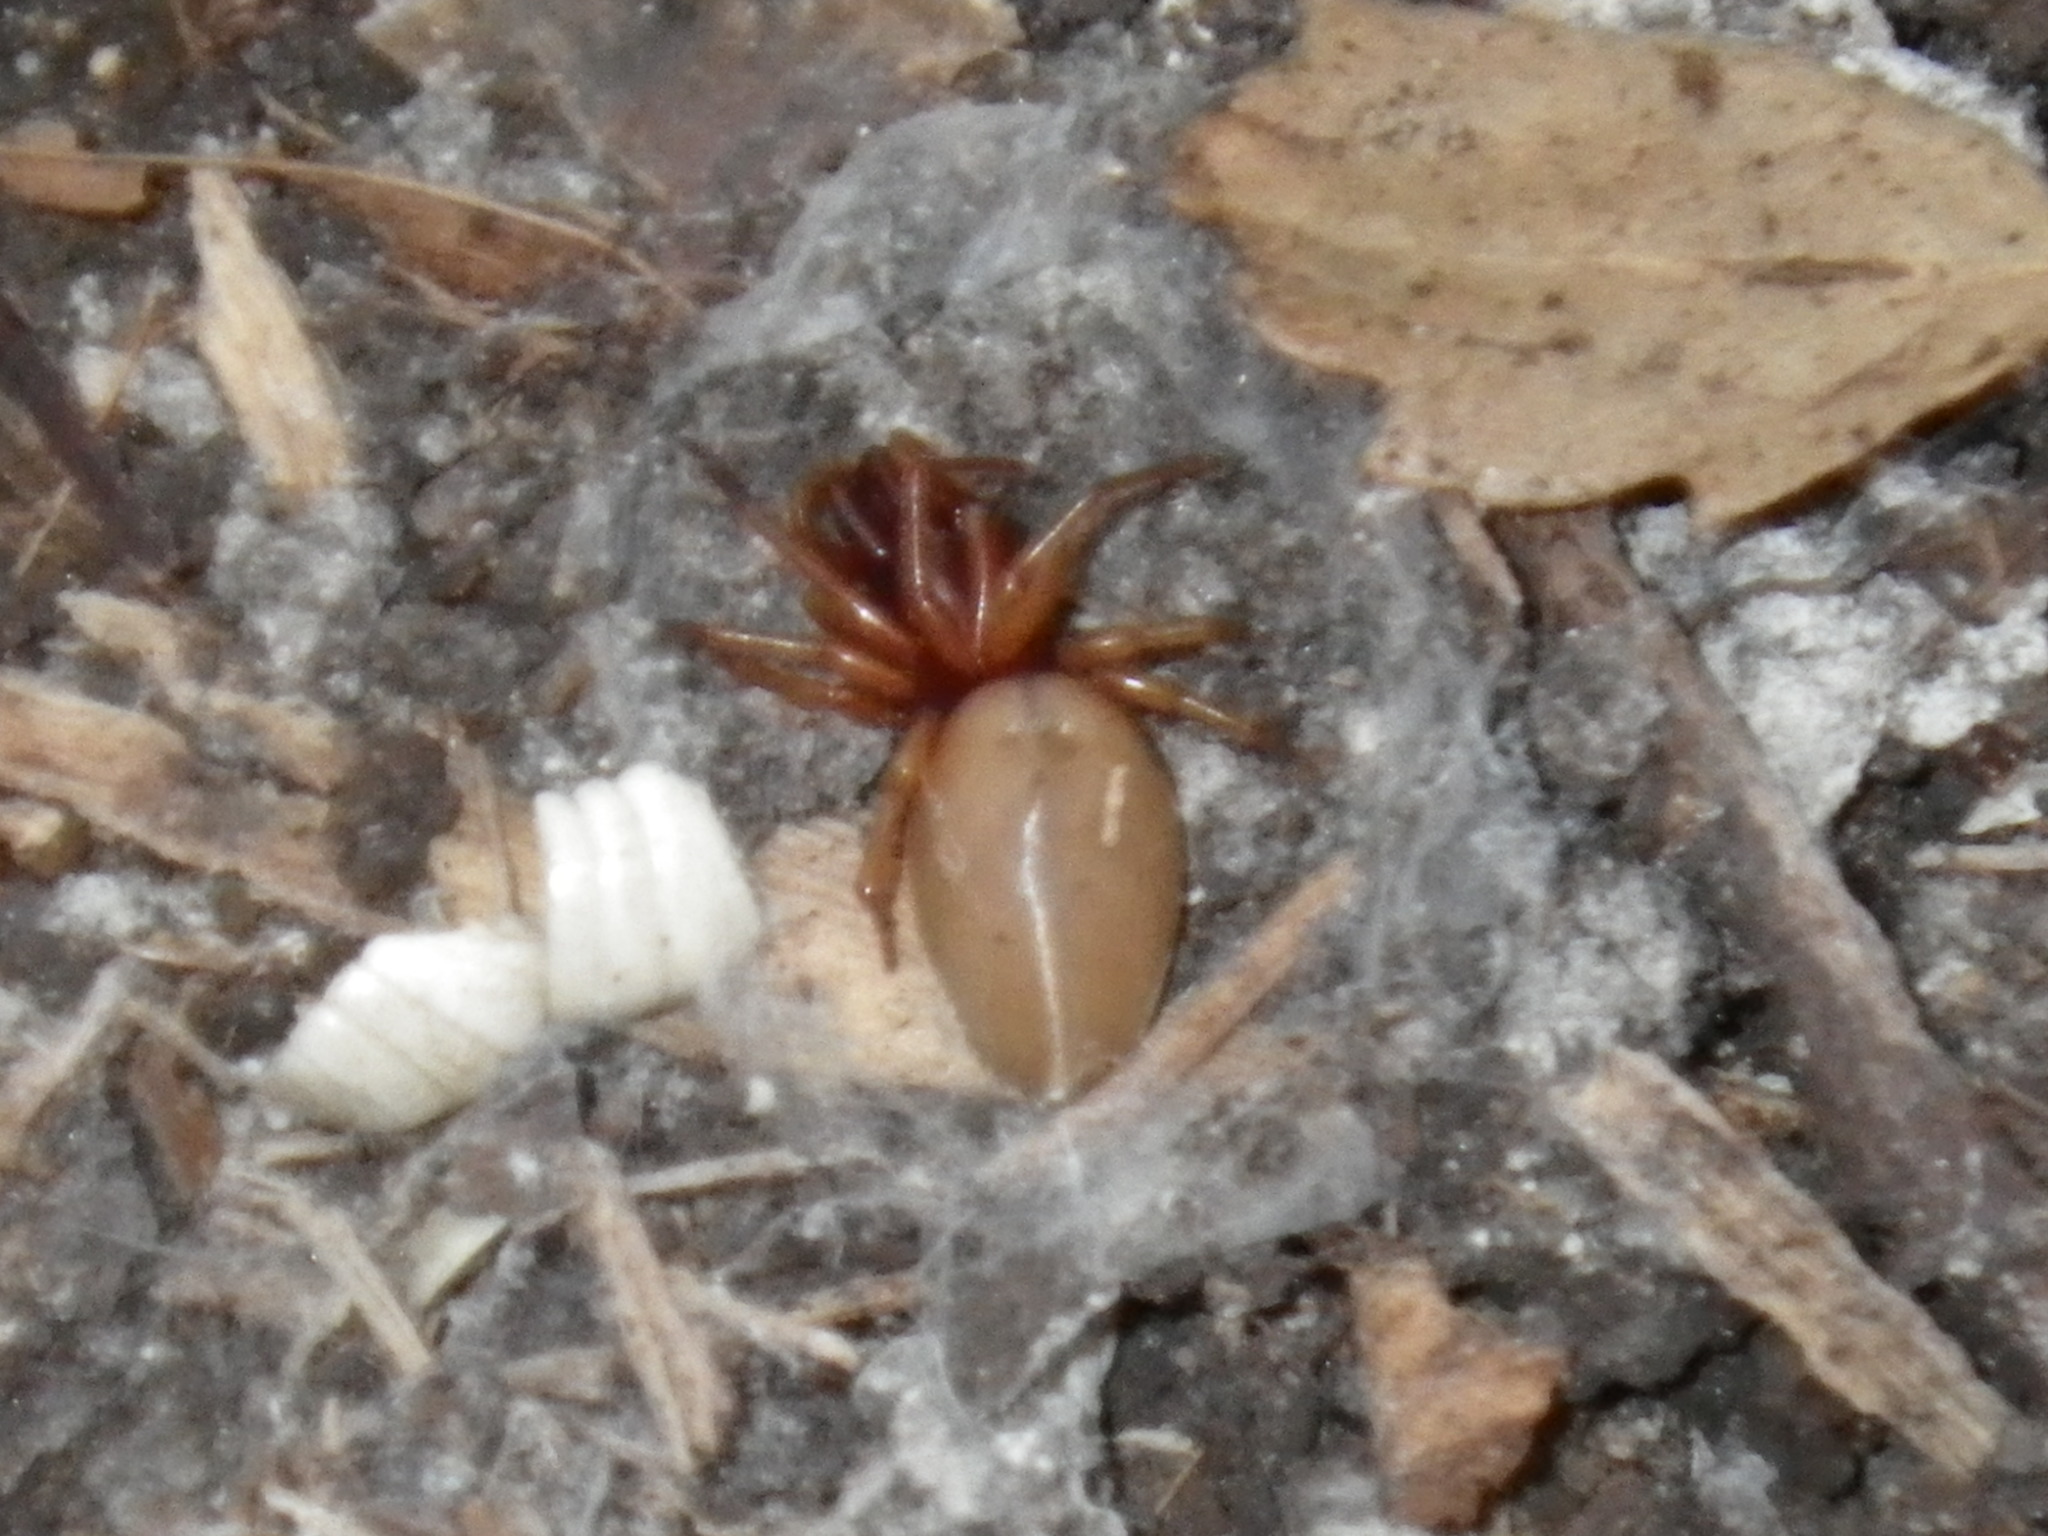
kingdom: Animalia
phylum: Arthropoda
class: Arachnida
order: Araneae
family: Dysderidae
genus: Dysdera
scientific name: Dysdera crocata
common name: Woodlouse spider
